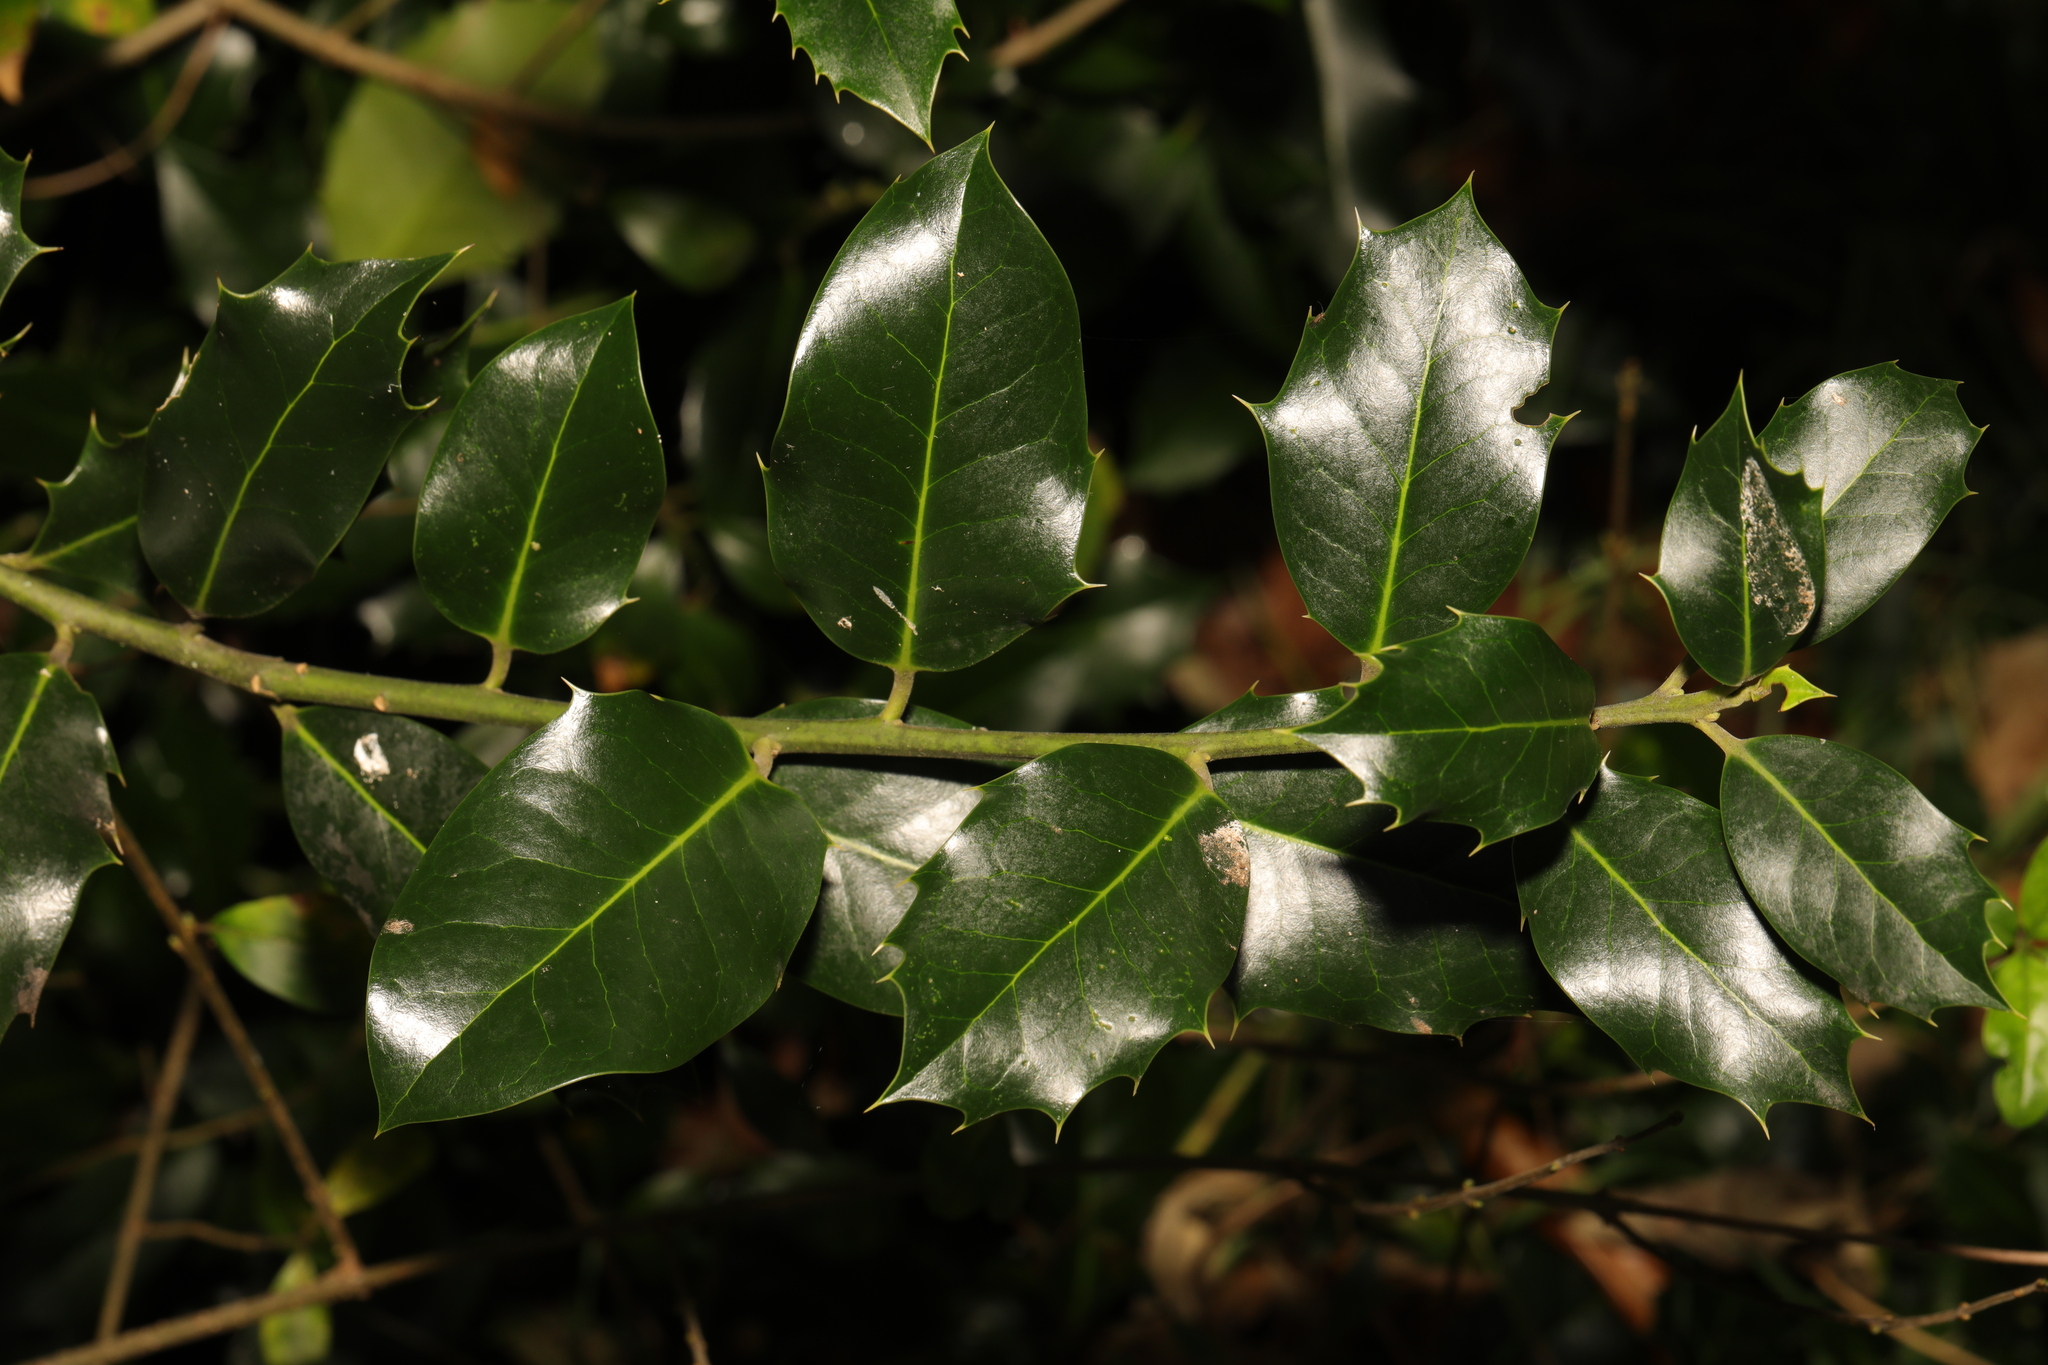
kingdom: Plantae
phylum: Tracheophyta
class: Magnoliopsida
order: Aquifoliales
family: Aquifoliaceae
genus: Ilex
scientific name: Ilex aquifolium
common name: English holly
